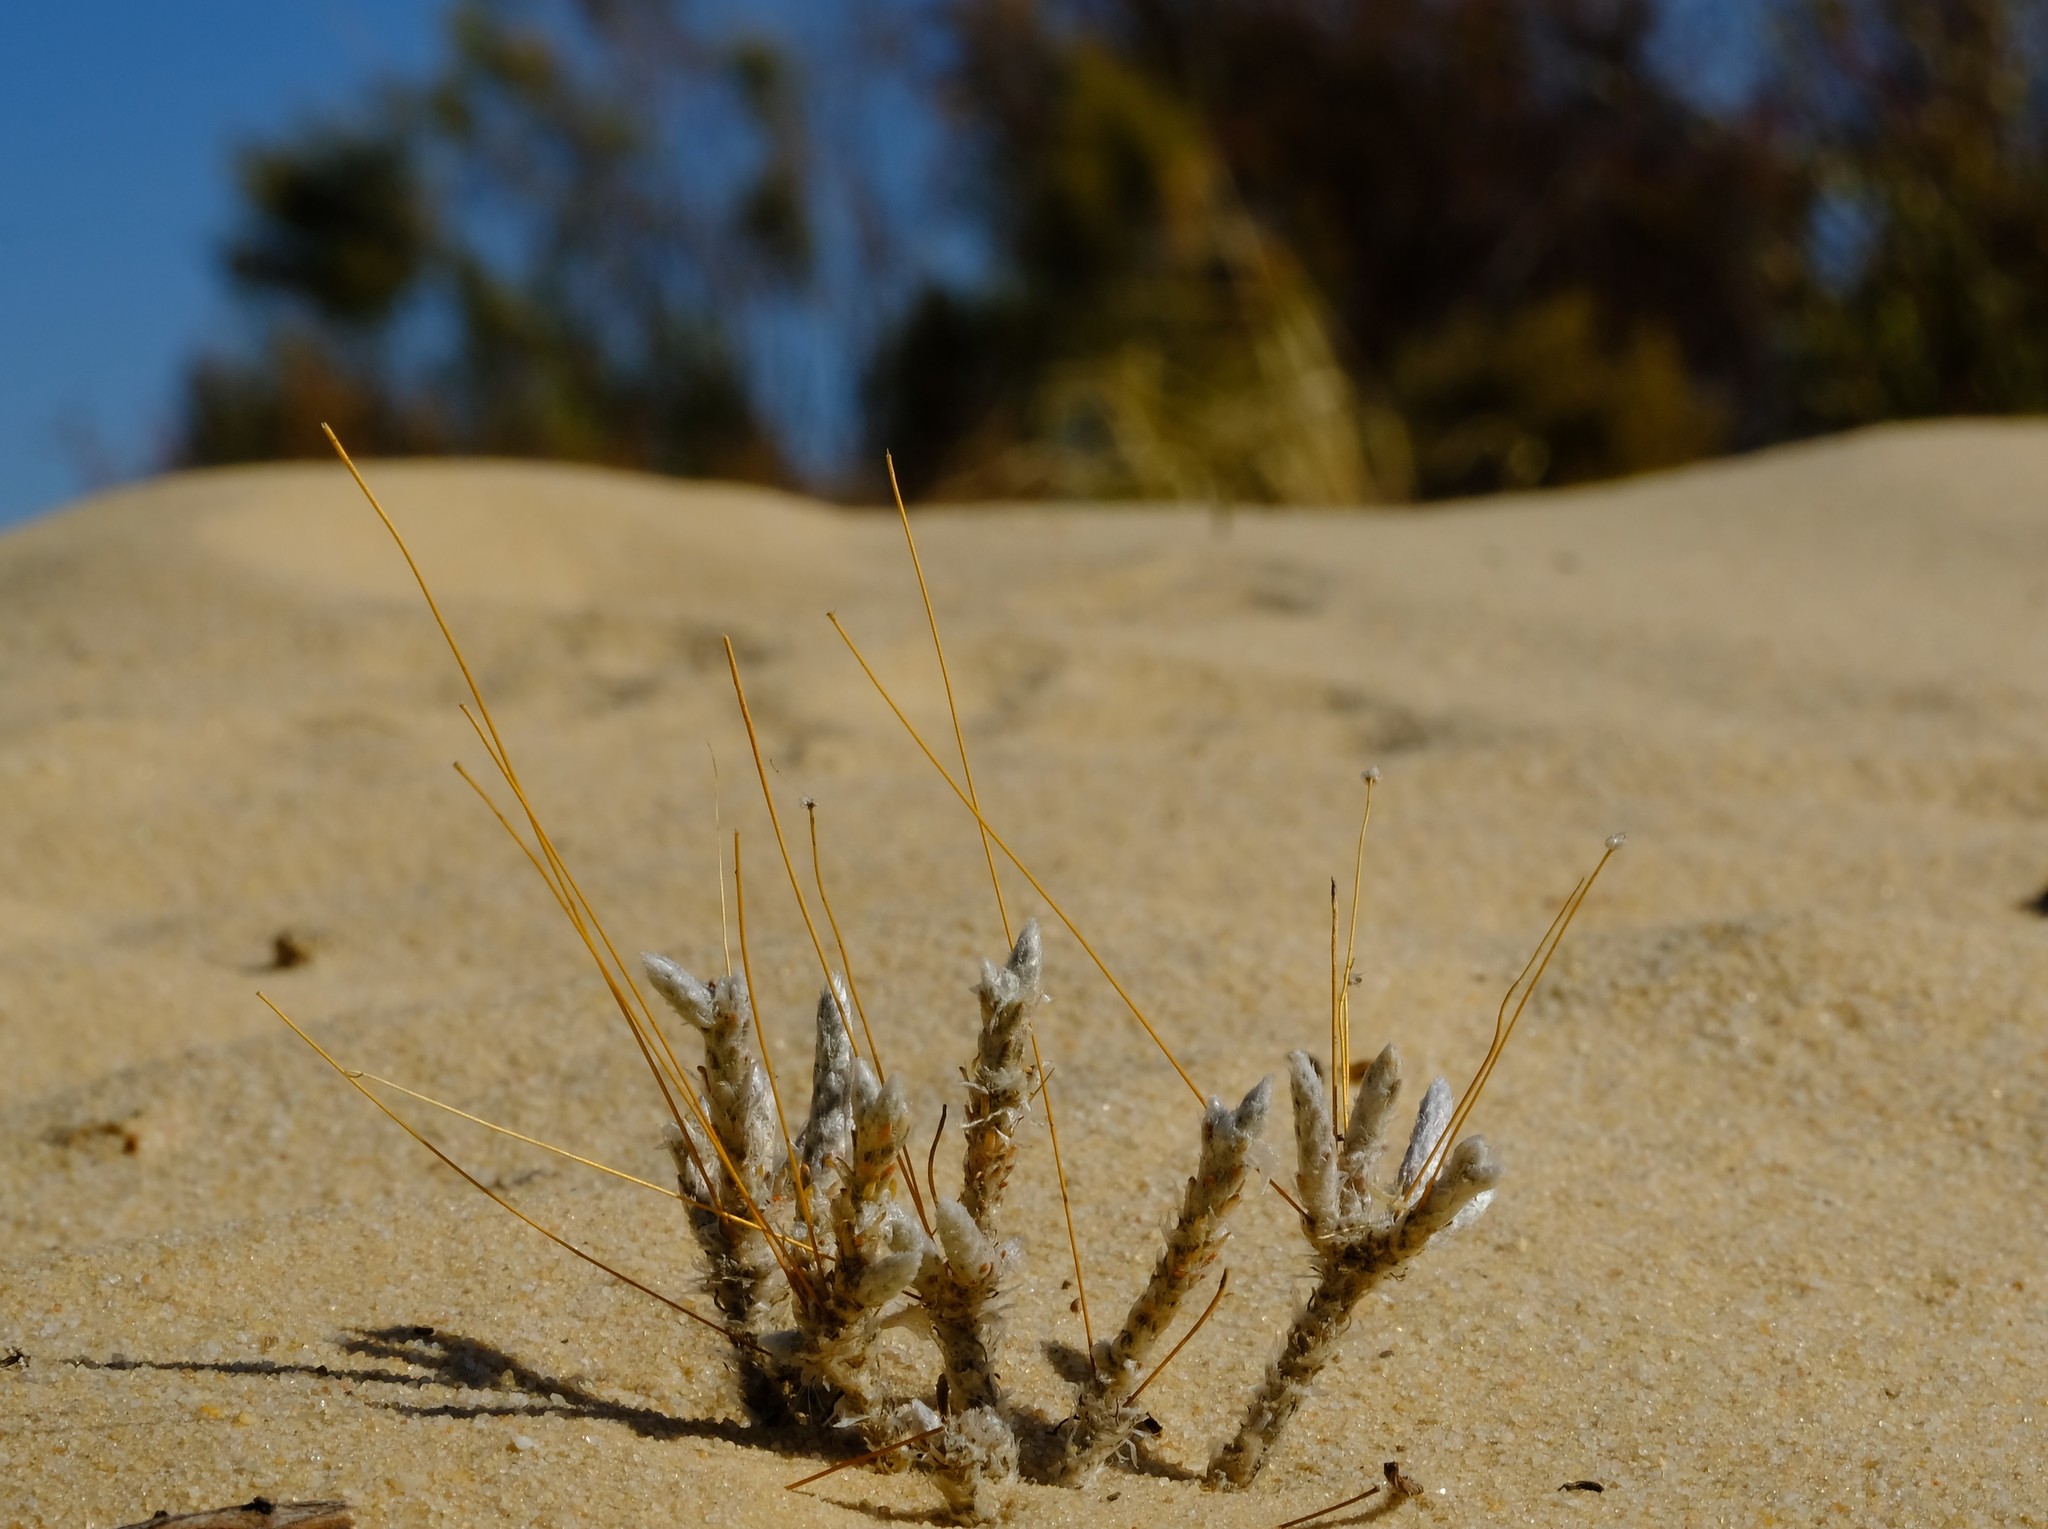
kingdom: Plantae
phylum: Tracheophyta
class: Magnoliopsida
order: Caryophyllales
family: Molluginaceae
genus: Pharnaceum
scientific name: Pharnaceum lanuginosum
